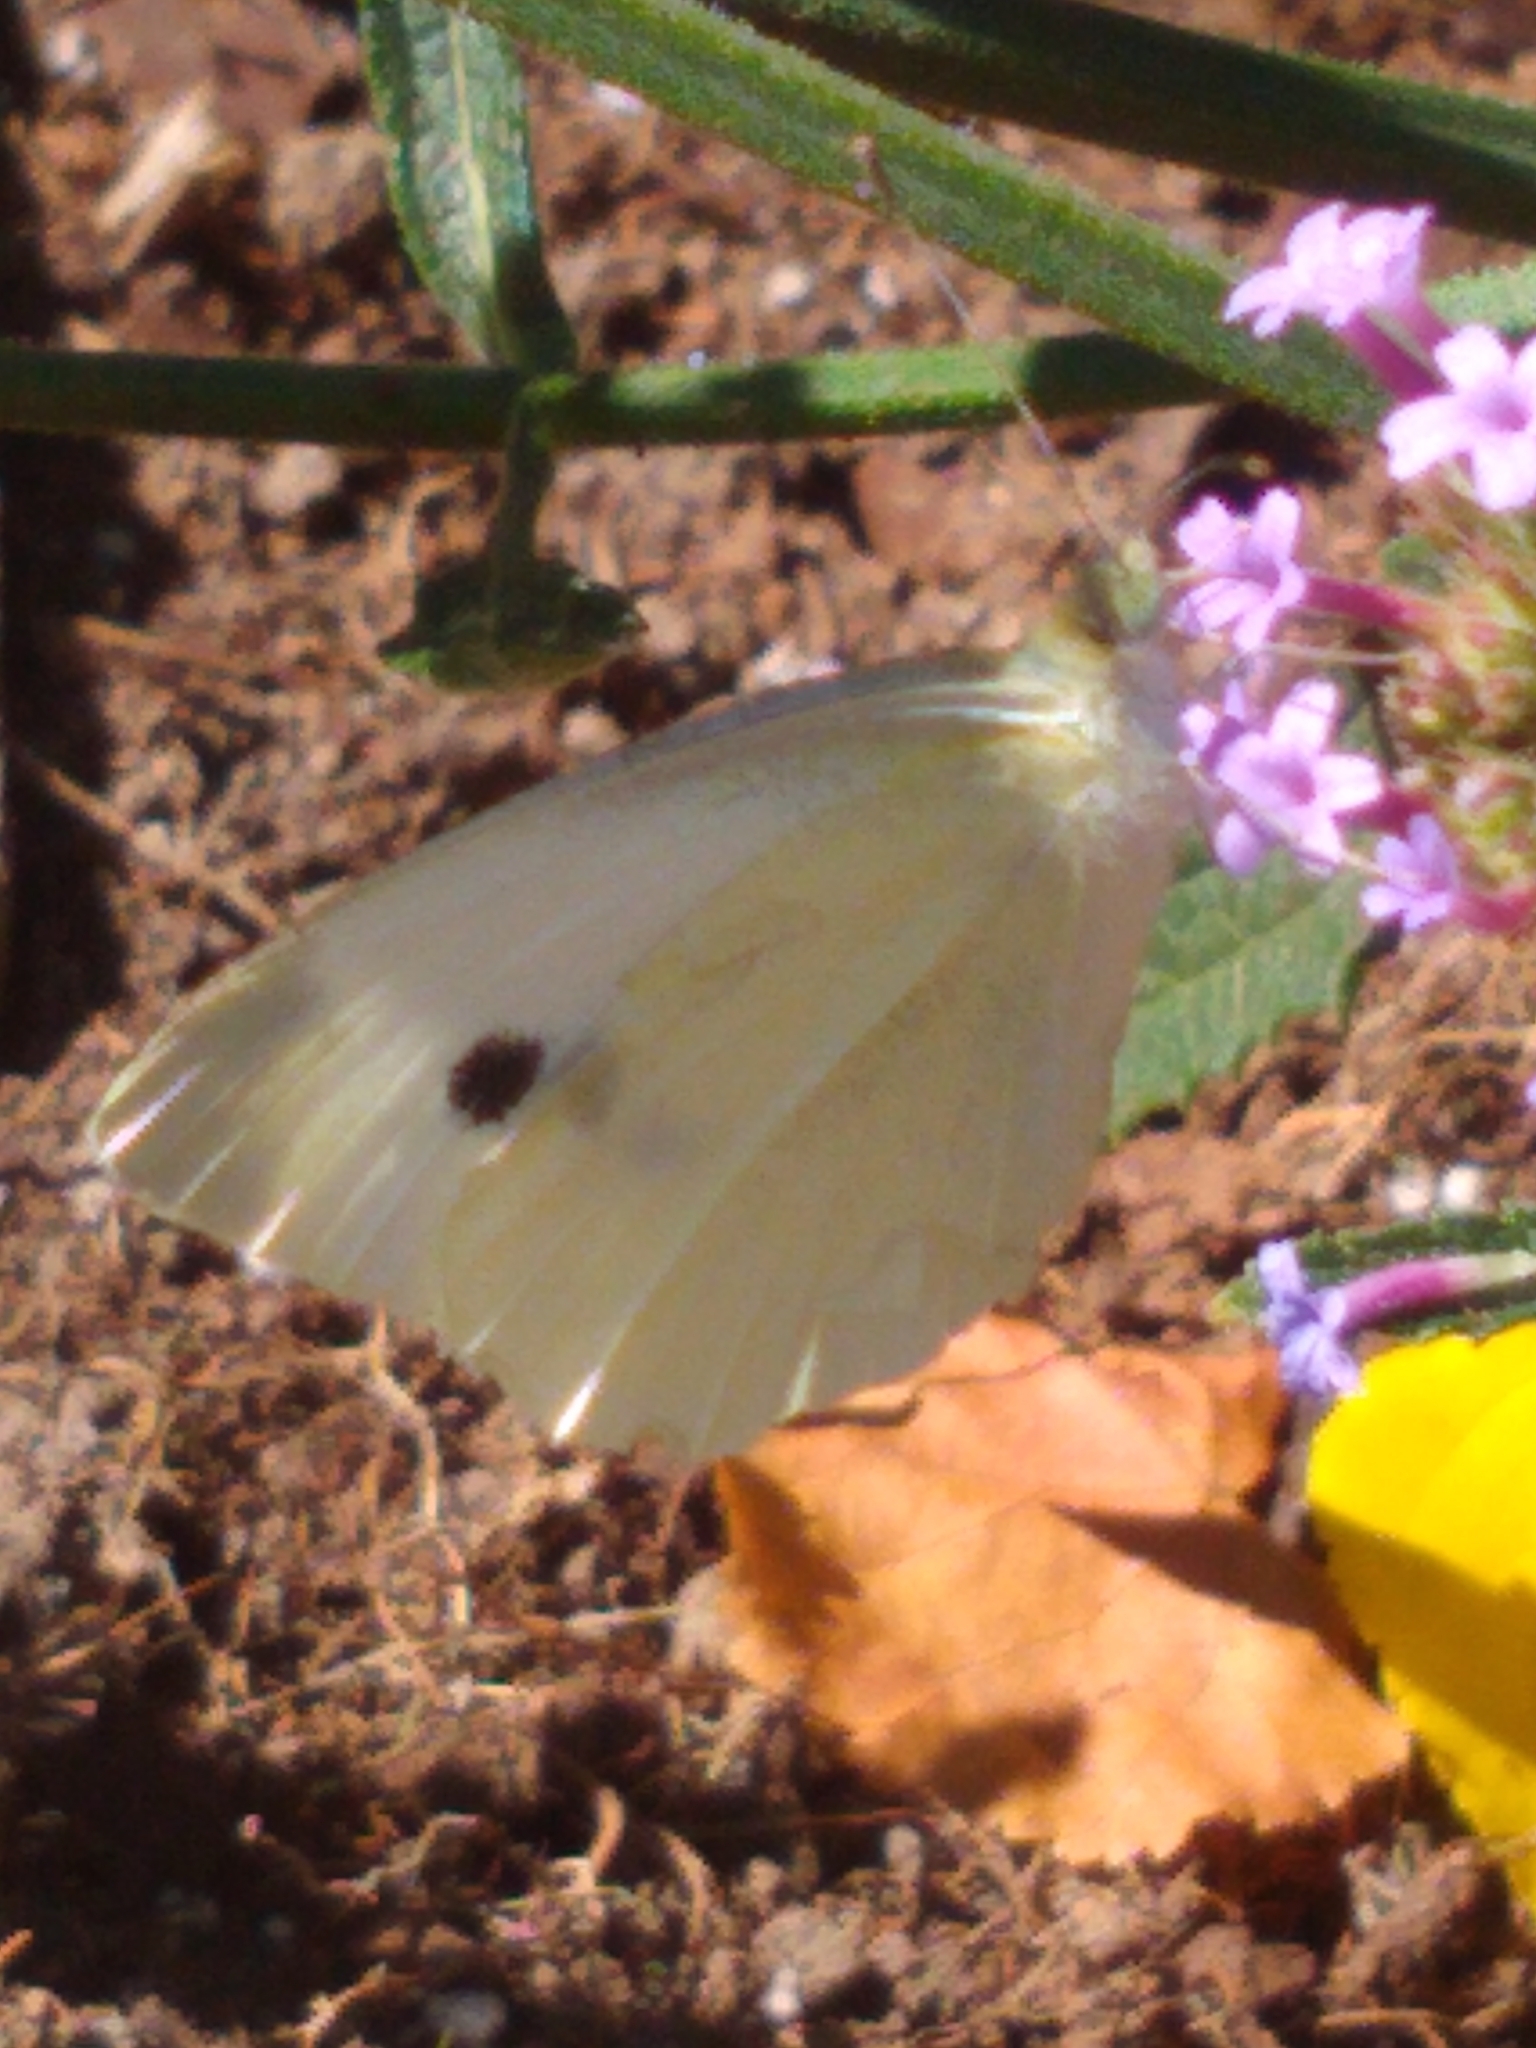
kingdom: Animalia
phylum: Arthropoda
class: Insecta
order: Lepidoptera
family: Pieridae
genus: Pieris
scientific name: Pieris rapae
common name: Small white
